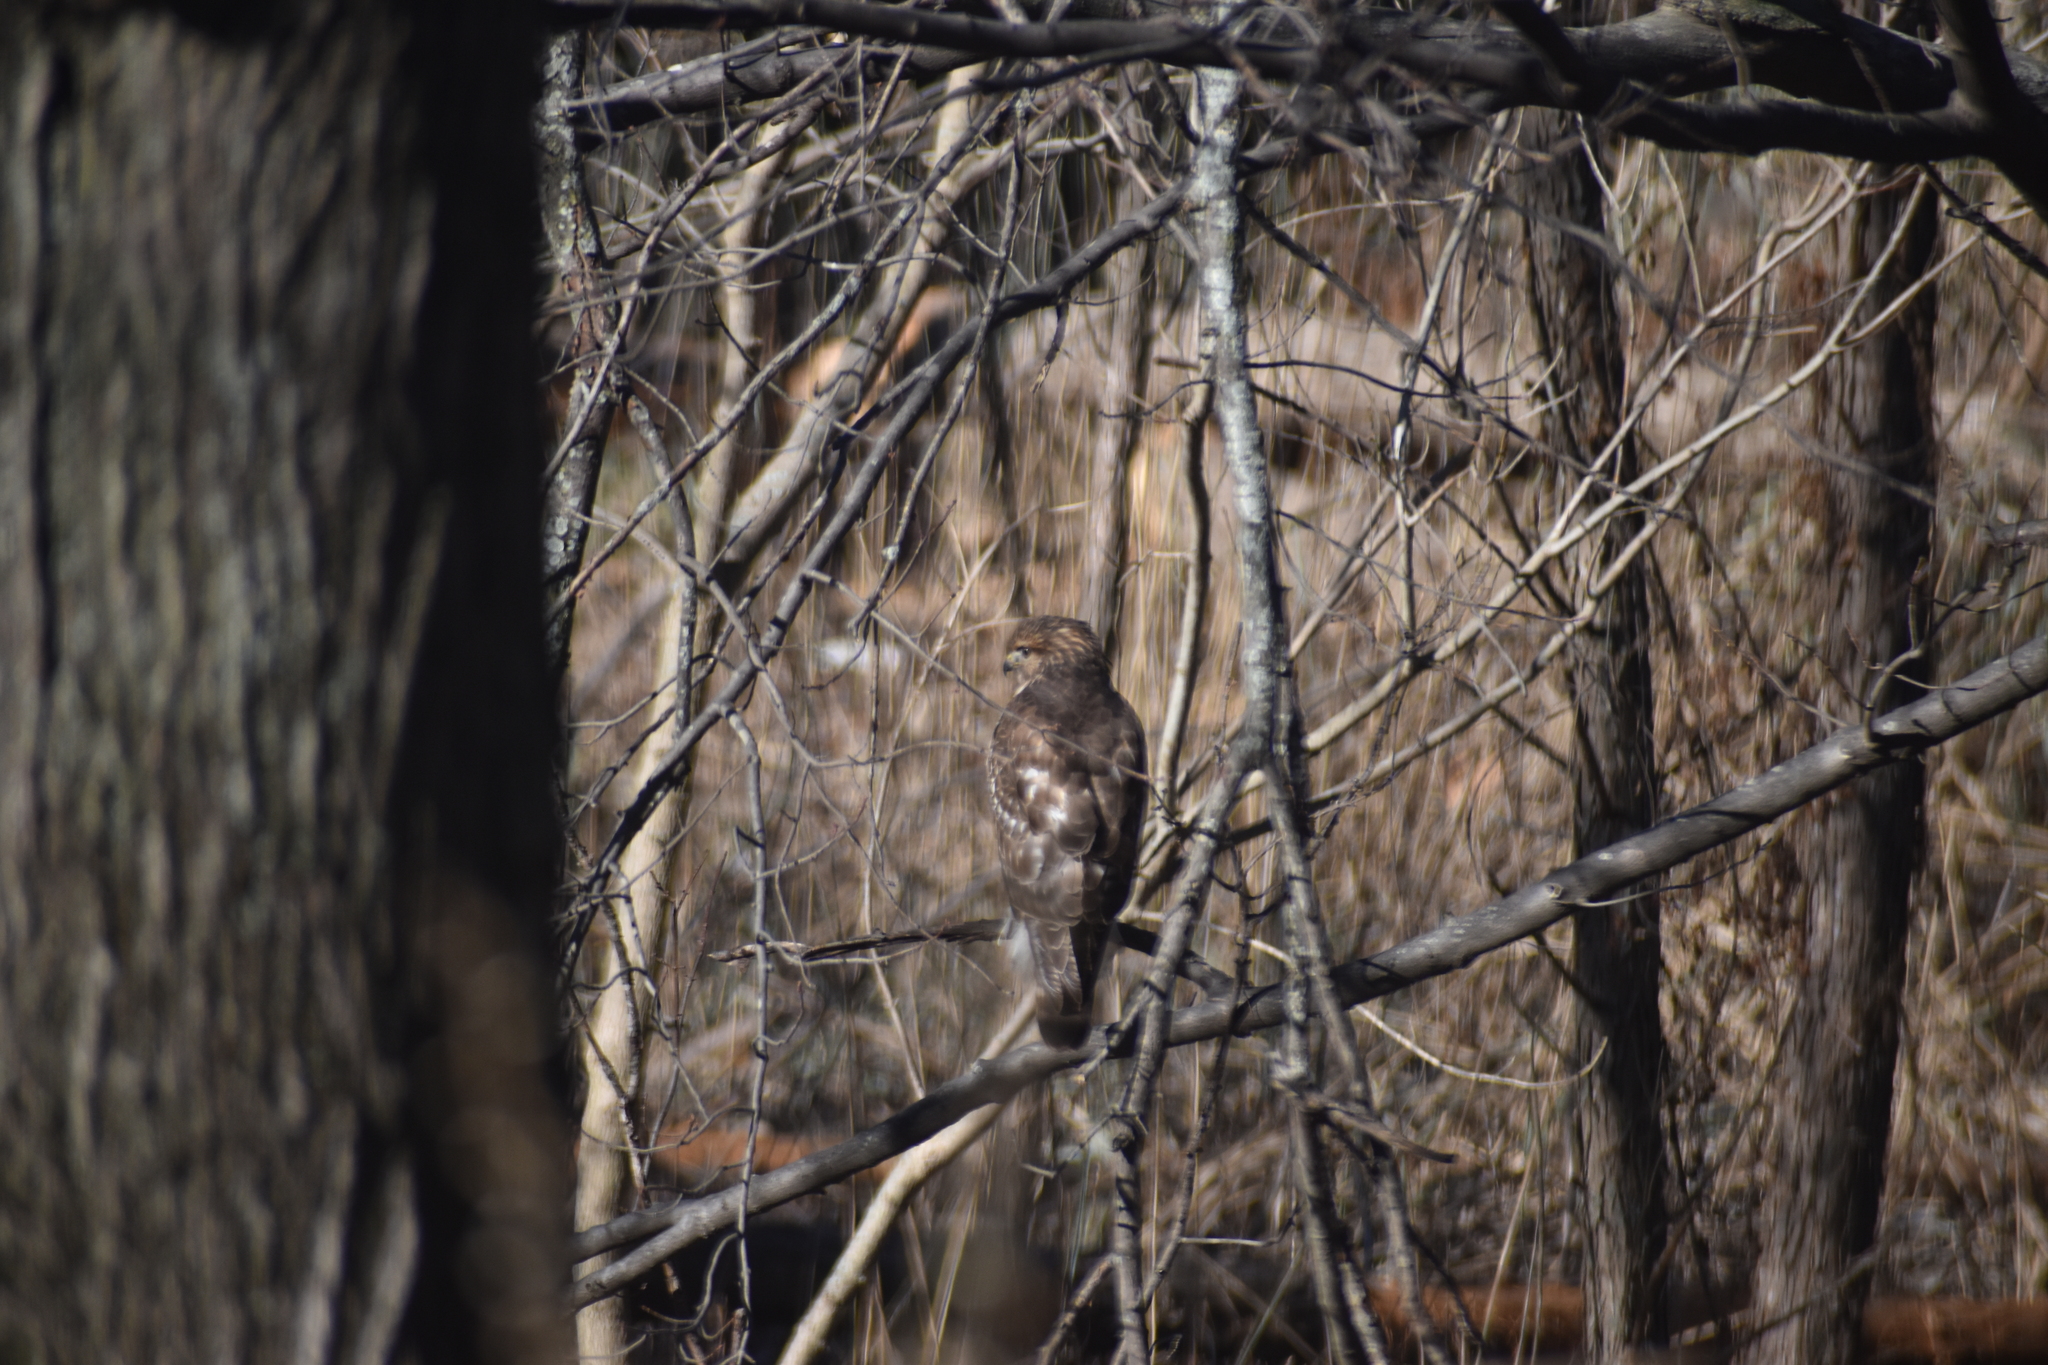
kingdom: Animalia
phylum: Chordata
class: Aves
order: Accipitriformes
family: Accipitridae
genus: Buteo
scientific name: Buteo lineatus
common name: Red-shouldered hawk
